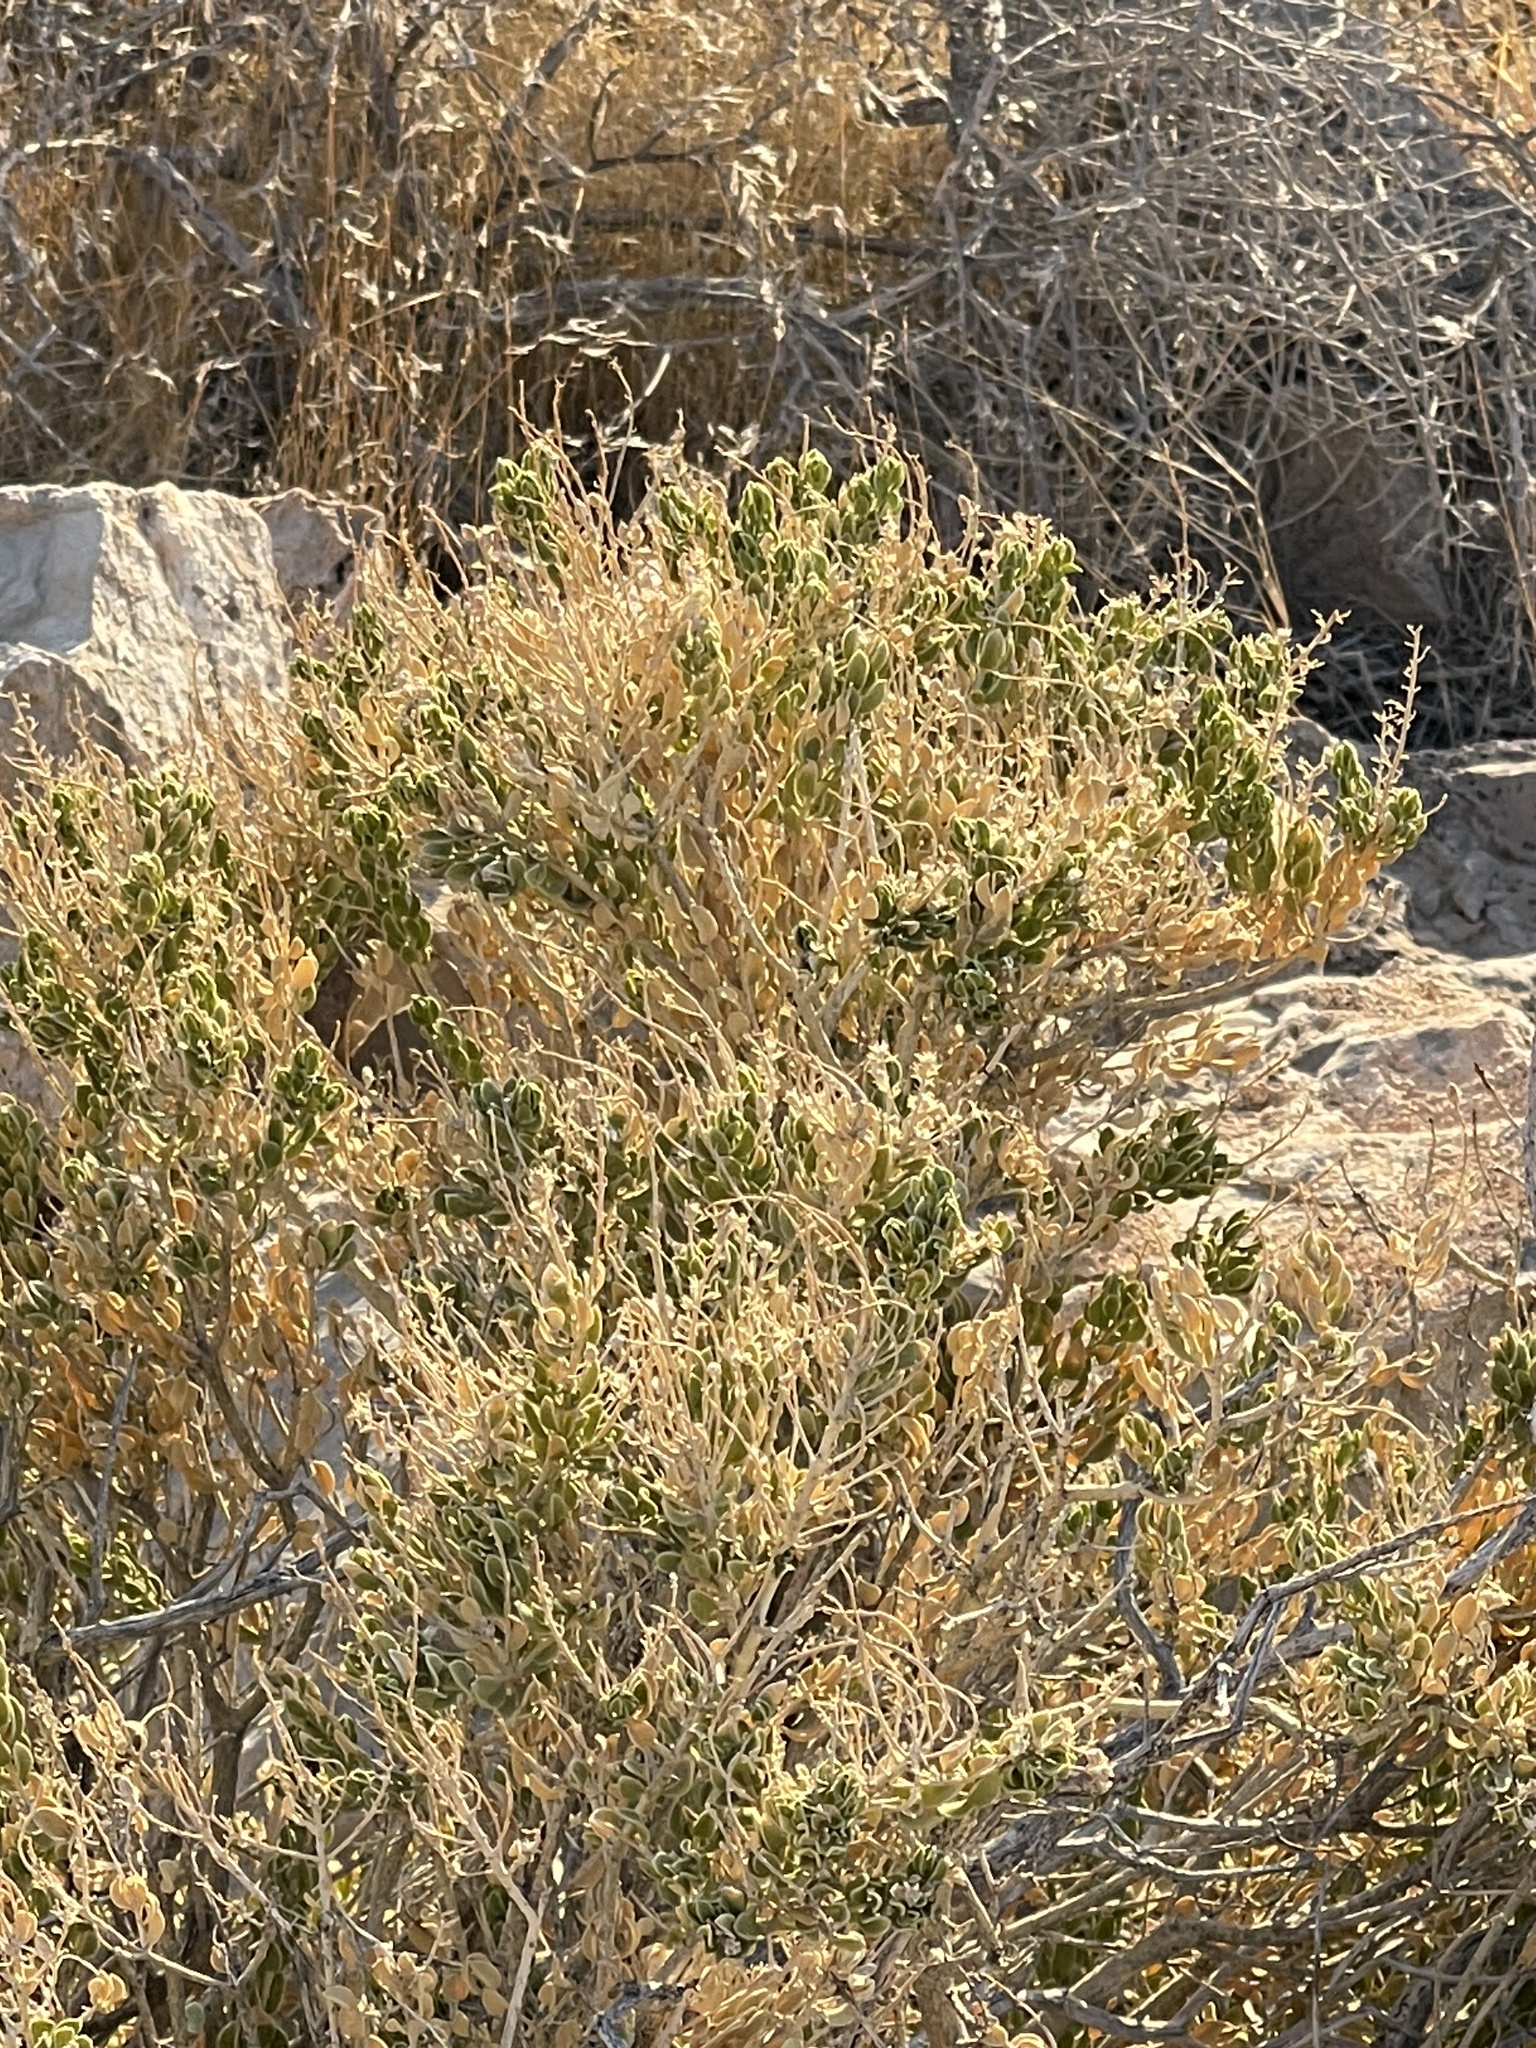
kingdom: Plantae
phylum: Tracheophyta
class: Magnoliopsida
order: Celastrales
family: Celastraceae
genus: Mortonia
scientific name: Mortonia utahensis
